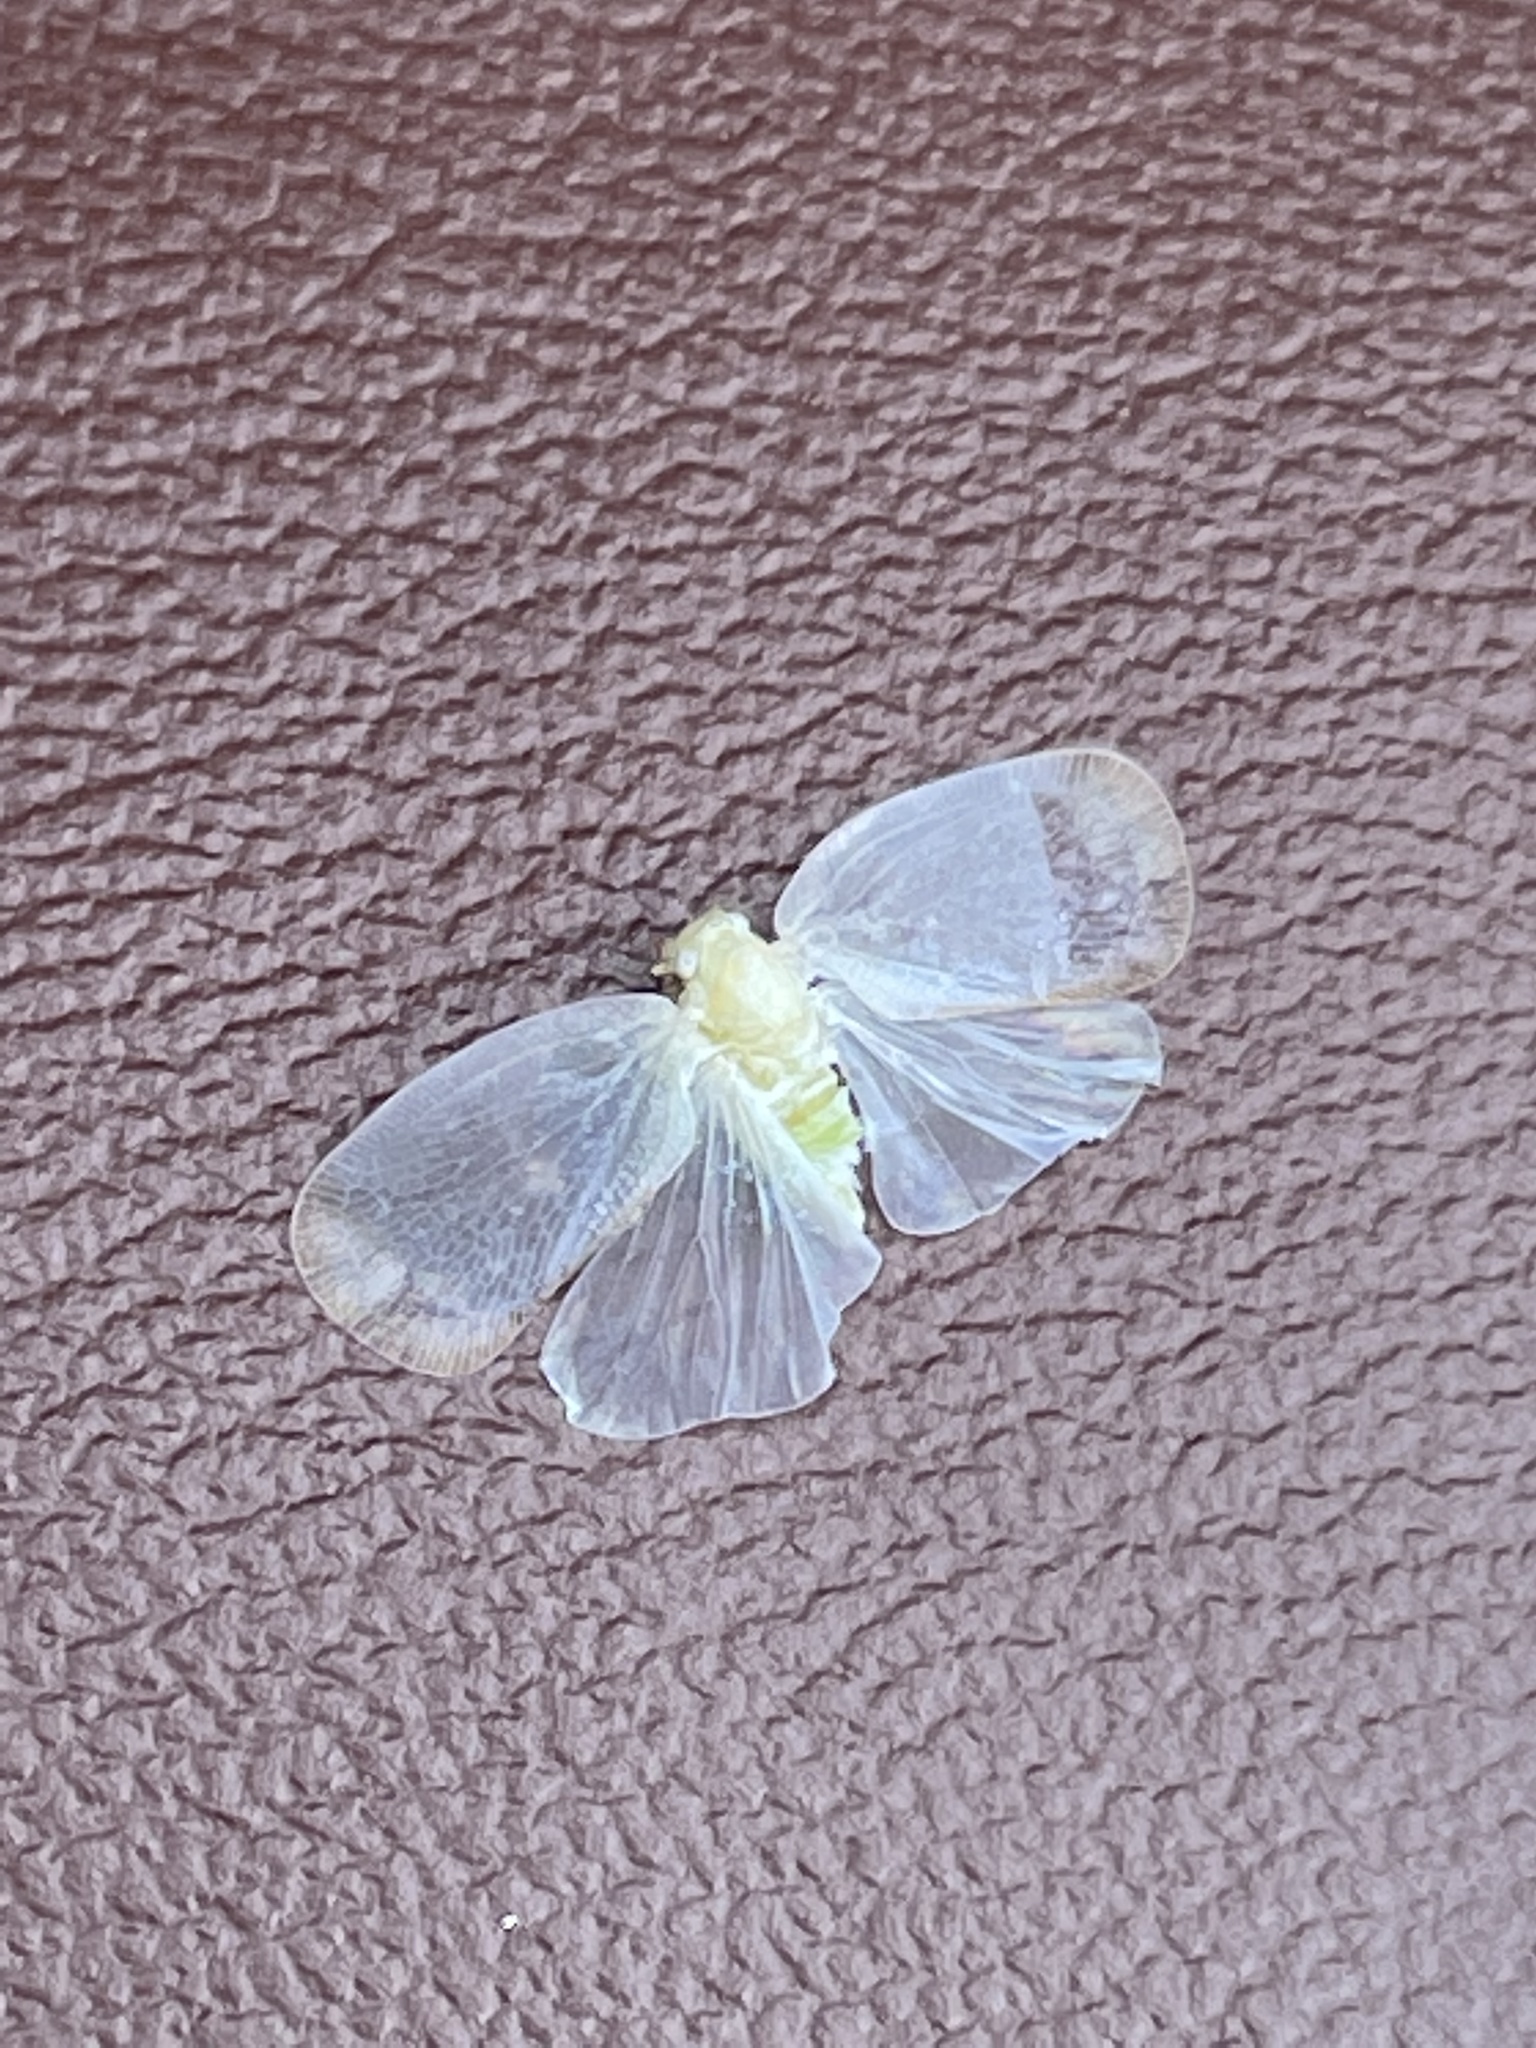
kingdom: Animalia
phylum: Arthropoda
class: Insecta
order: Hemiptera
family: Flatidae
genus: Ormenoides
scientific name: Ormenoides venusta
